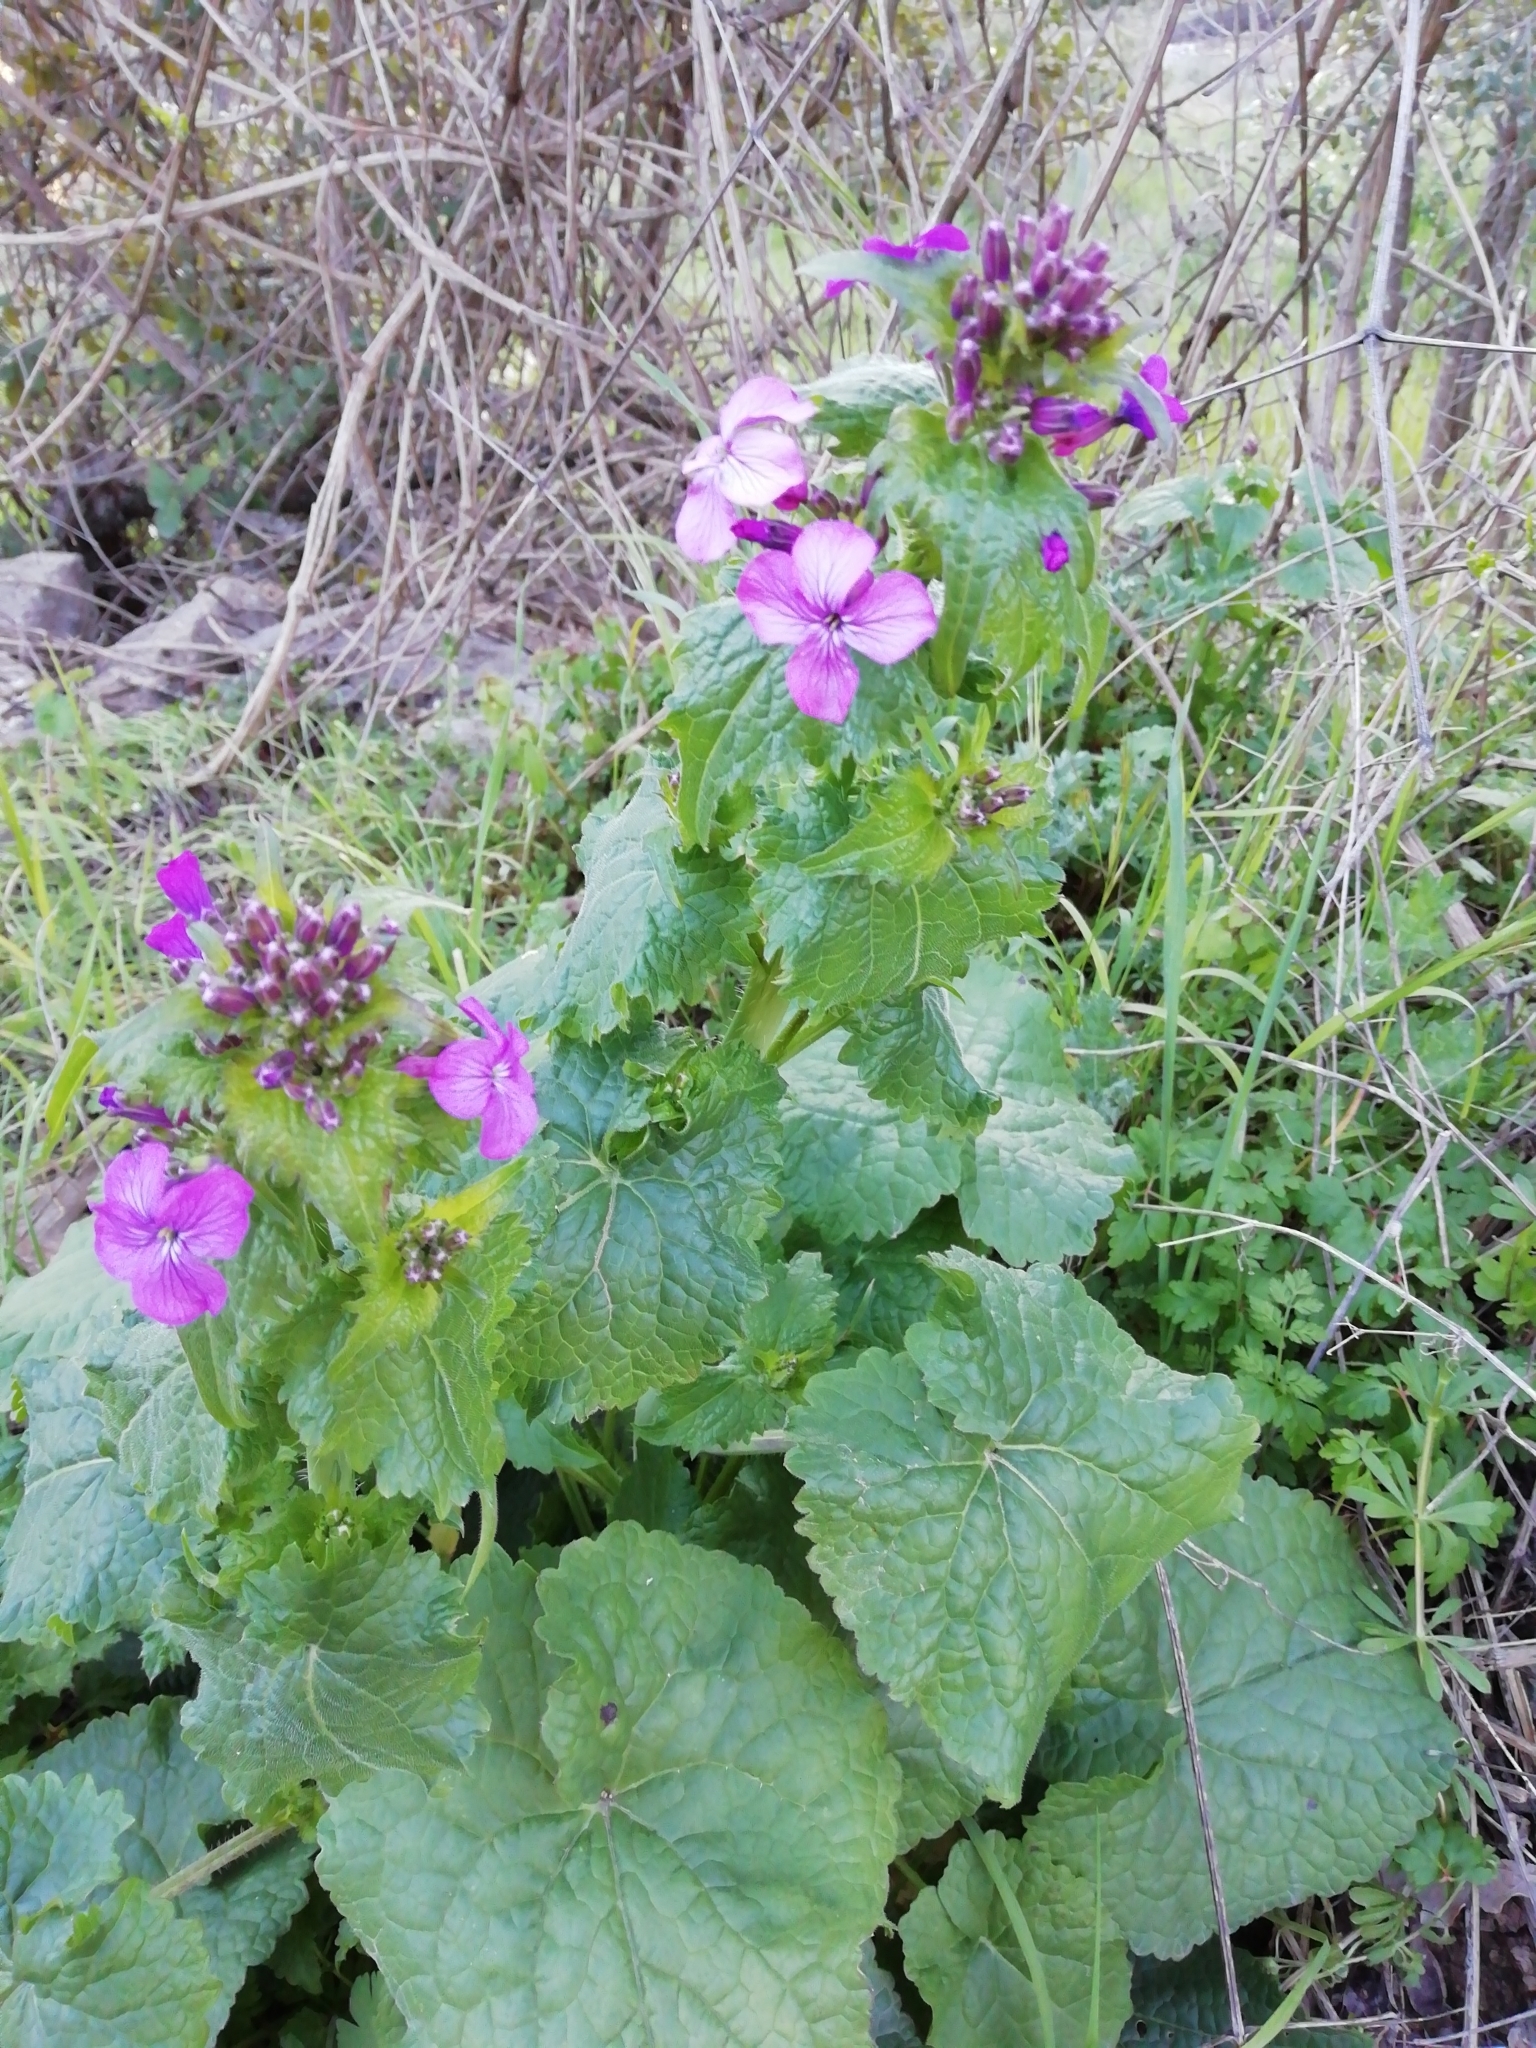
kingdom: Plantae
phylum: Tracheophyta
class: Magnoliopsida
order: Brassicales
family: Brassicaceae
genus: Lunaria
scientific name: Lunaria annua
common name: Honesty
